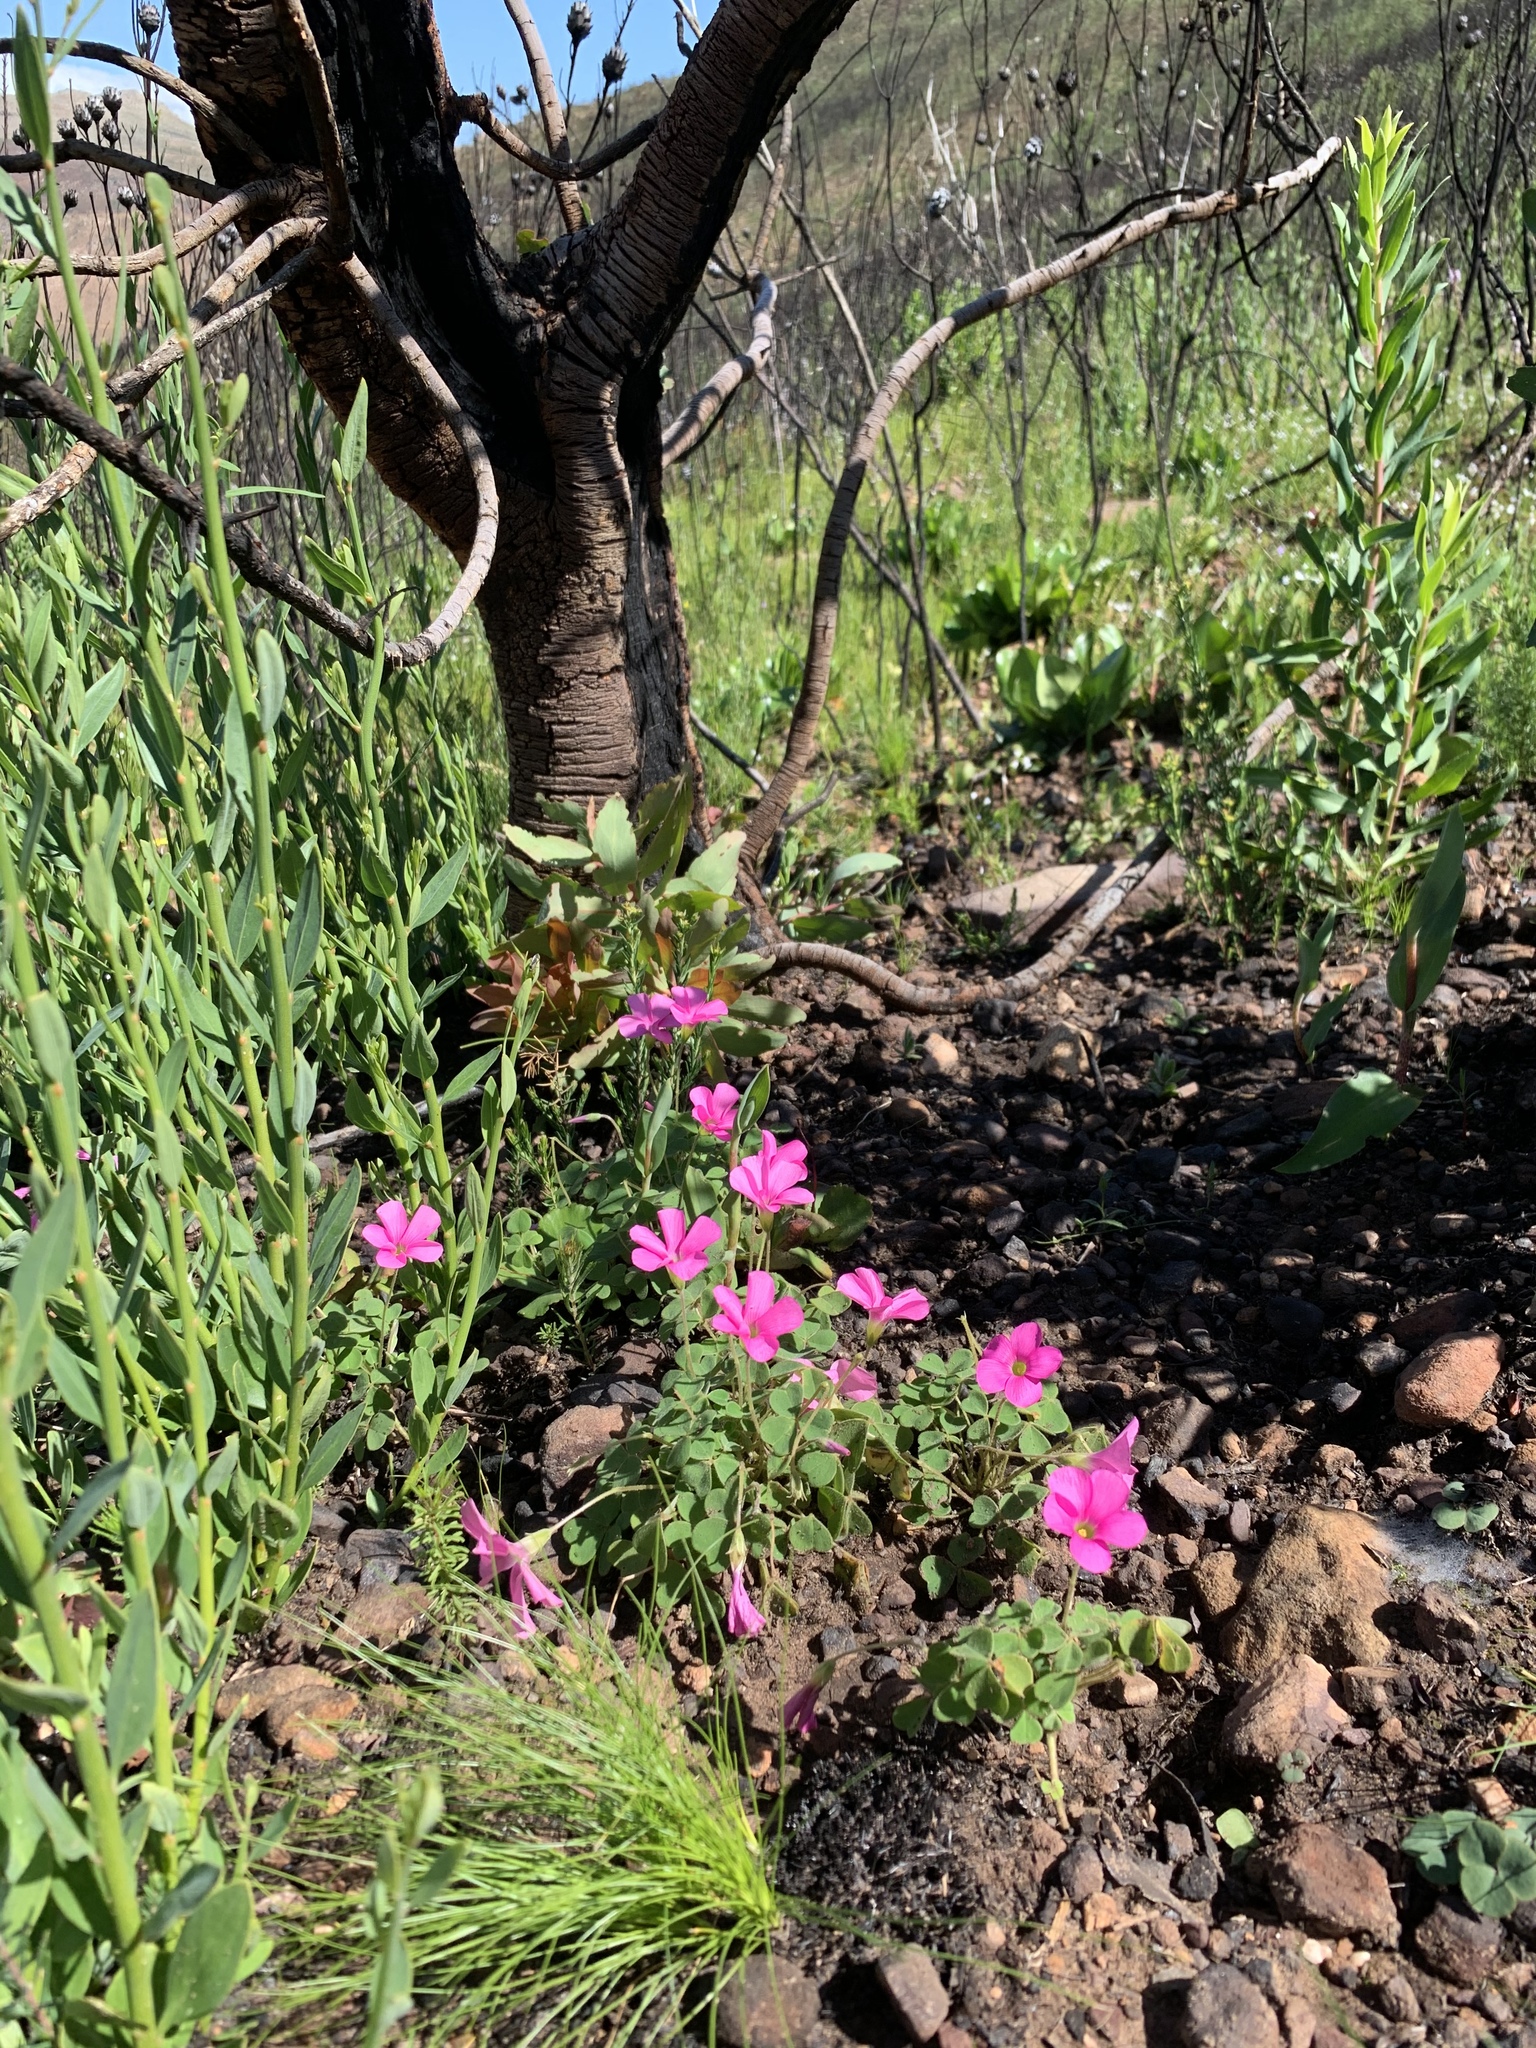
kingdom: Plantae
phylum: Tracheophyta
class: Magnoliopsida
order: Oxalidales
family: Oxalidaceae
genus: Oxalis
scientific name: Oxalis lanata
